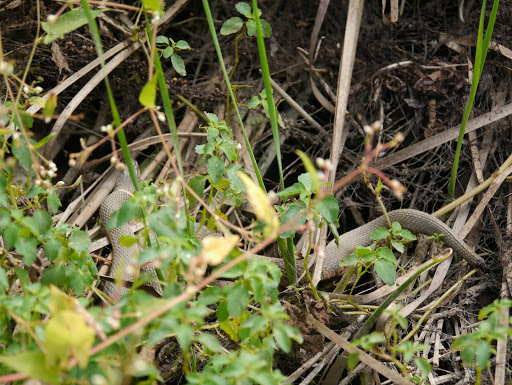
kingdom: Animalia
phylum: Chordata
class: Squamata
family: Colubridae
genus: Nerodia
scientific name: Nerodia sipedon
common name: Northern water snake
